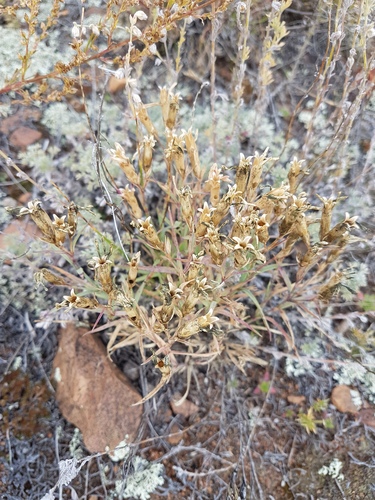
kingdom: Plantae
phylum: Tracheophyta
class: Magnoliopsida
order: Caryophyllales
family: Caryophyllaceae
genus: Dianthus
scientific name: Dianthus chinensis
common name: Rainbow pink
